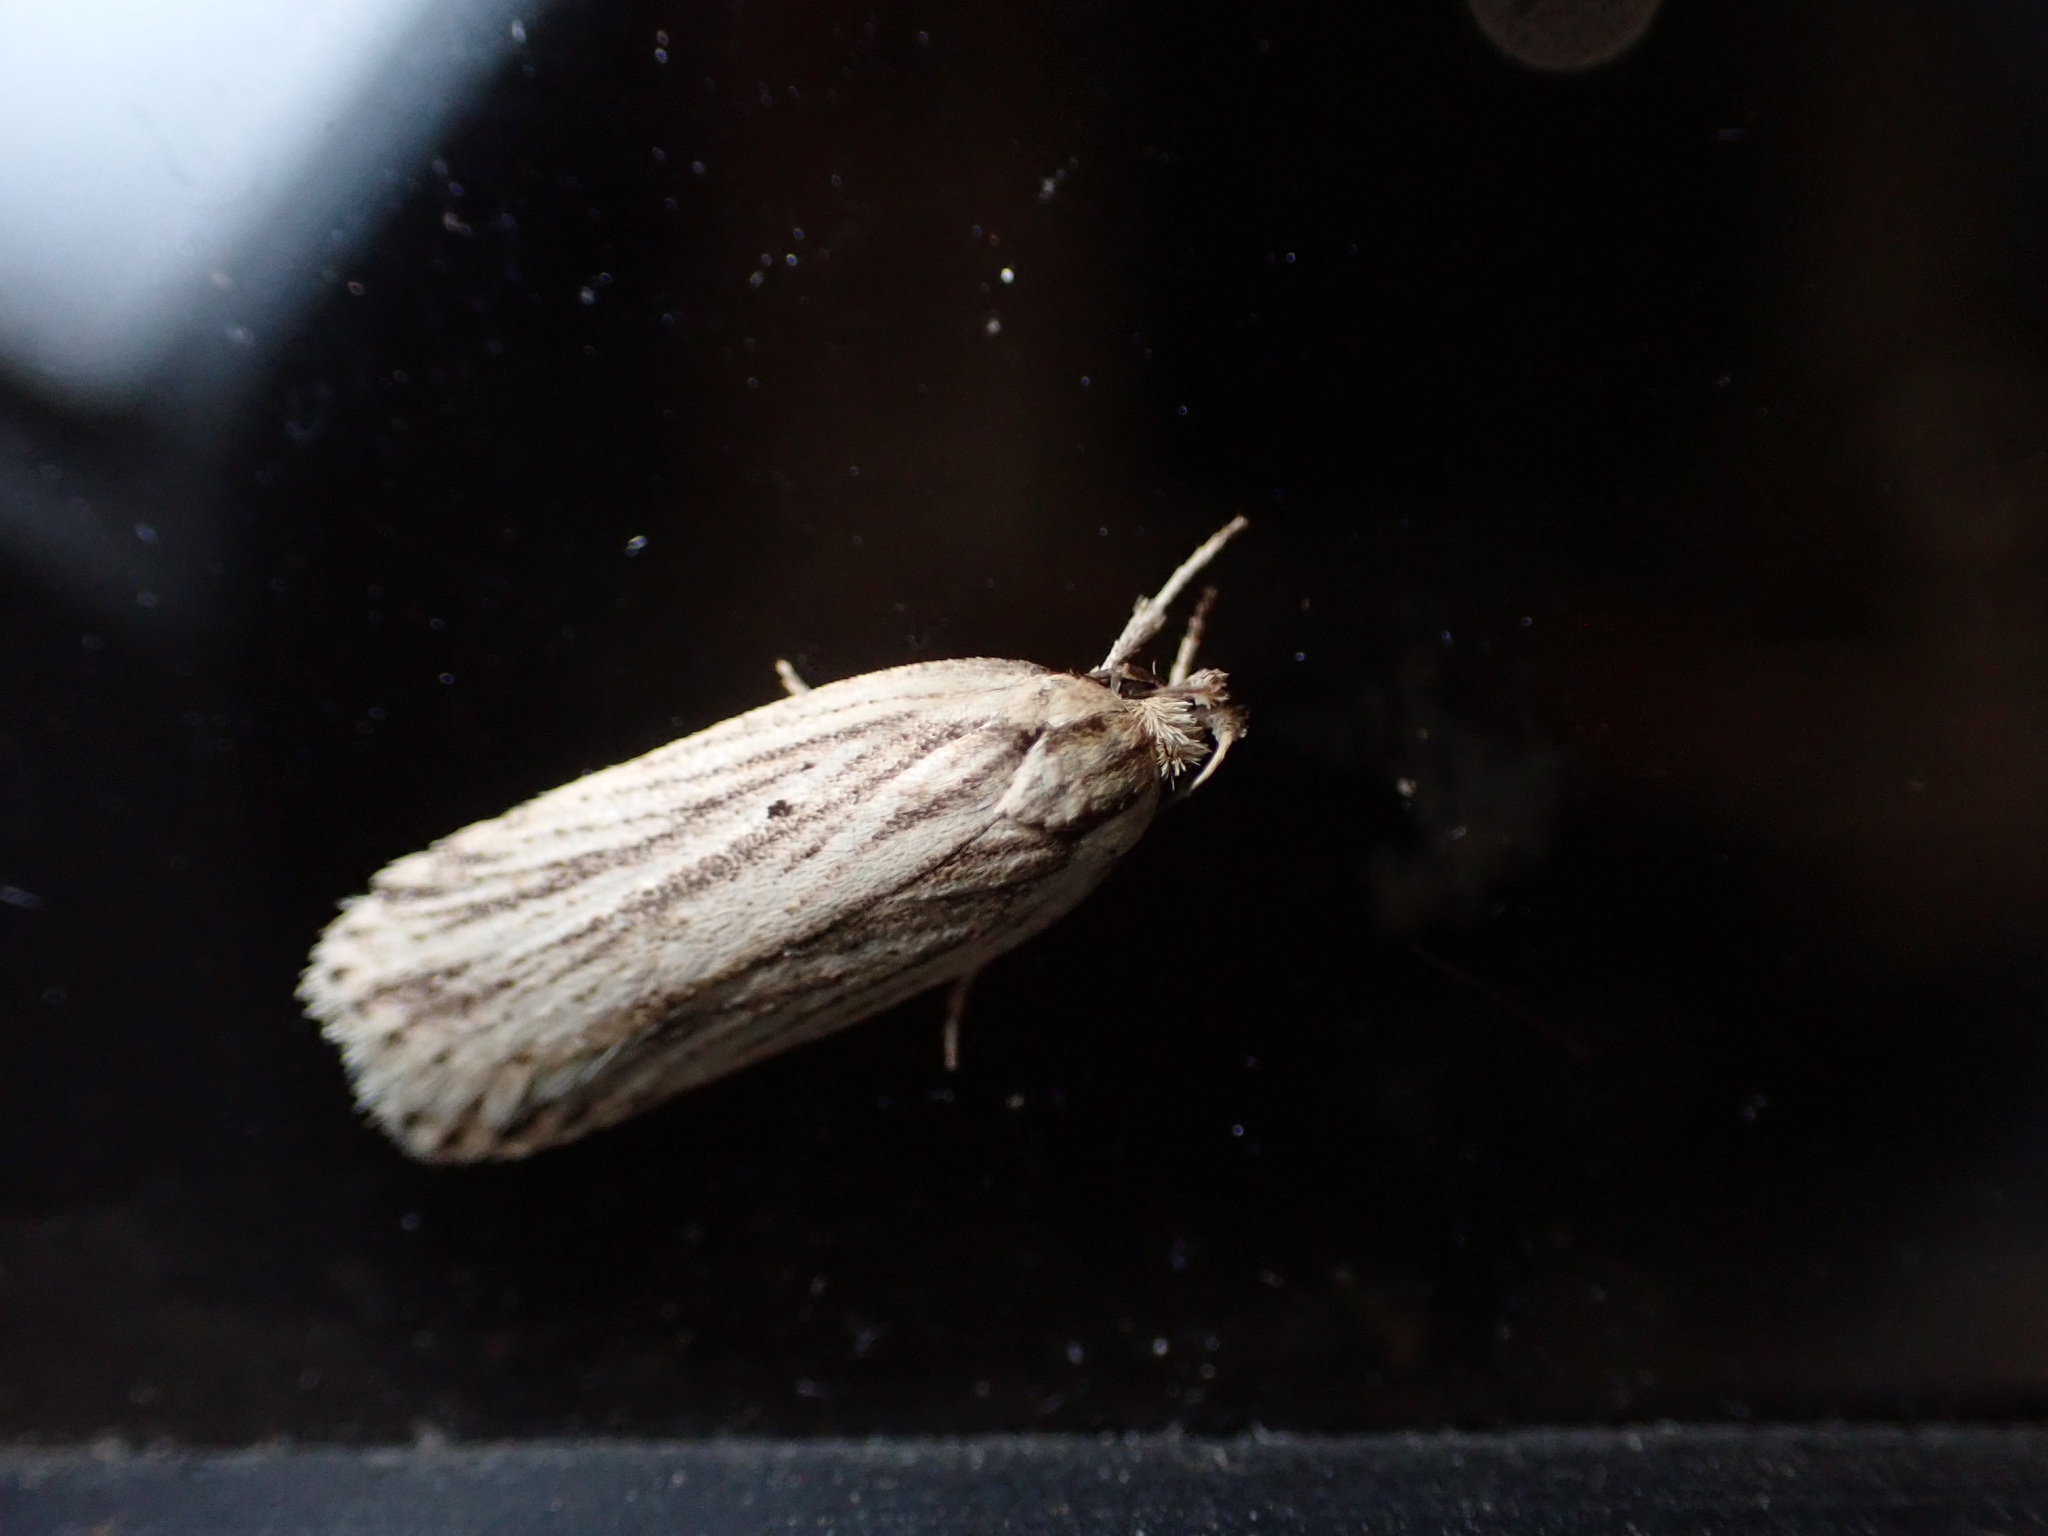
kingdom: Animalia
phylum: Arthropoda
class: Insecta
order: Lepidoptera
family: Depressariidae
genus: Agonopterix
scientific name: Agonopterix
